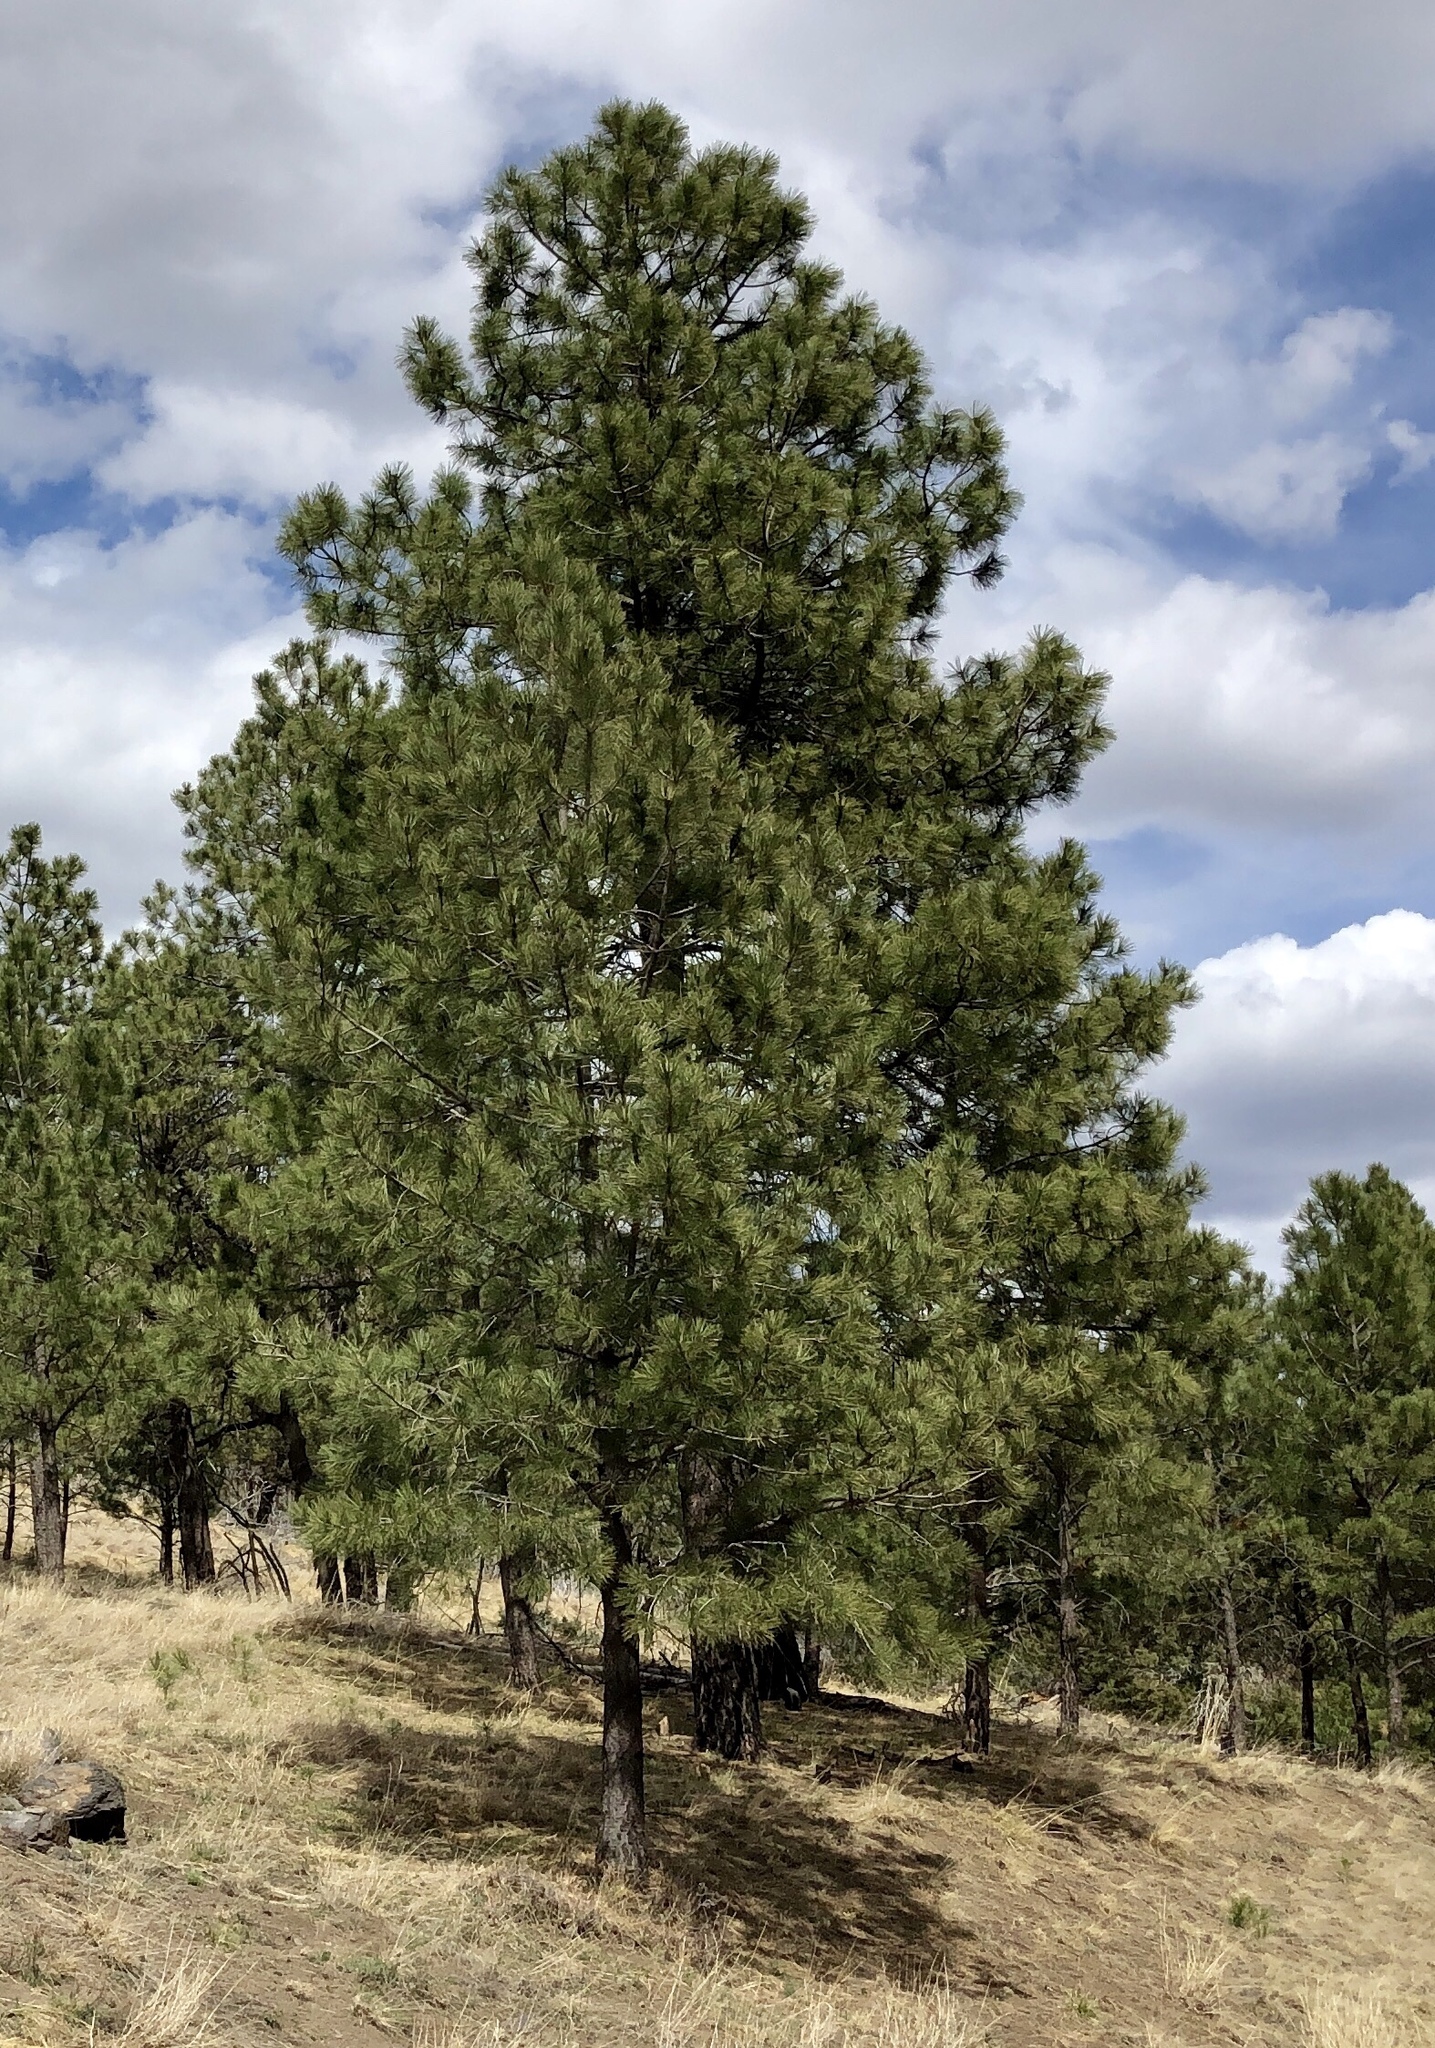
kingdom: Plantae
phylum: Tracheophyta
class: Pinopsida
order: Pinales
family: Pinaceae
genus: Pinus
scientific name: Pinus ponderosa
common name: Western yellow-pine
